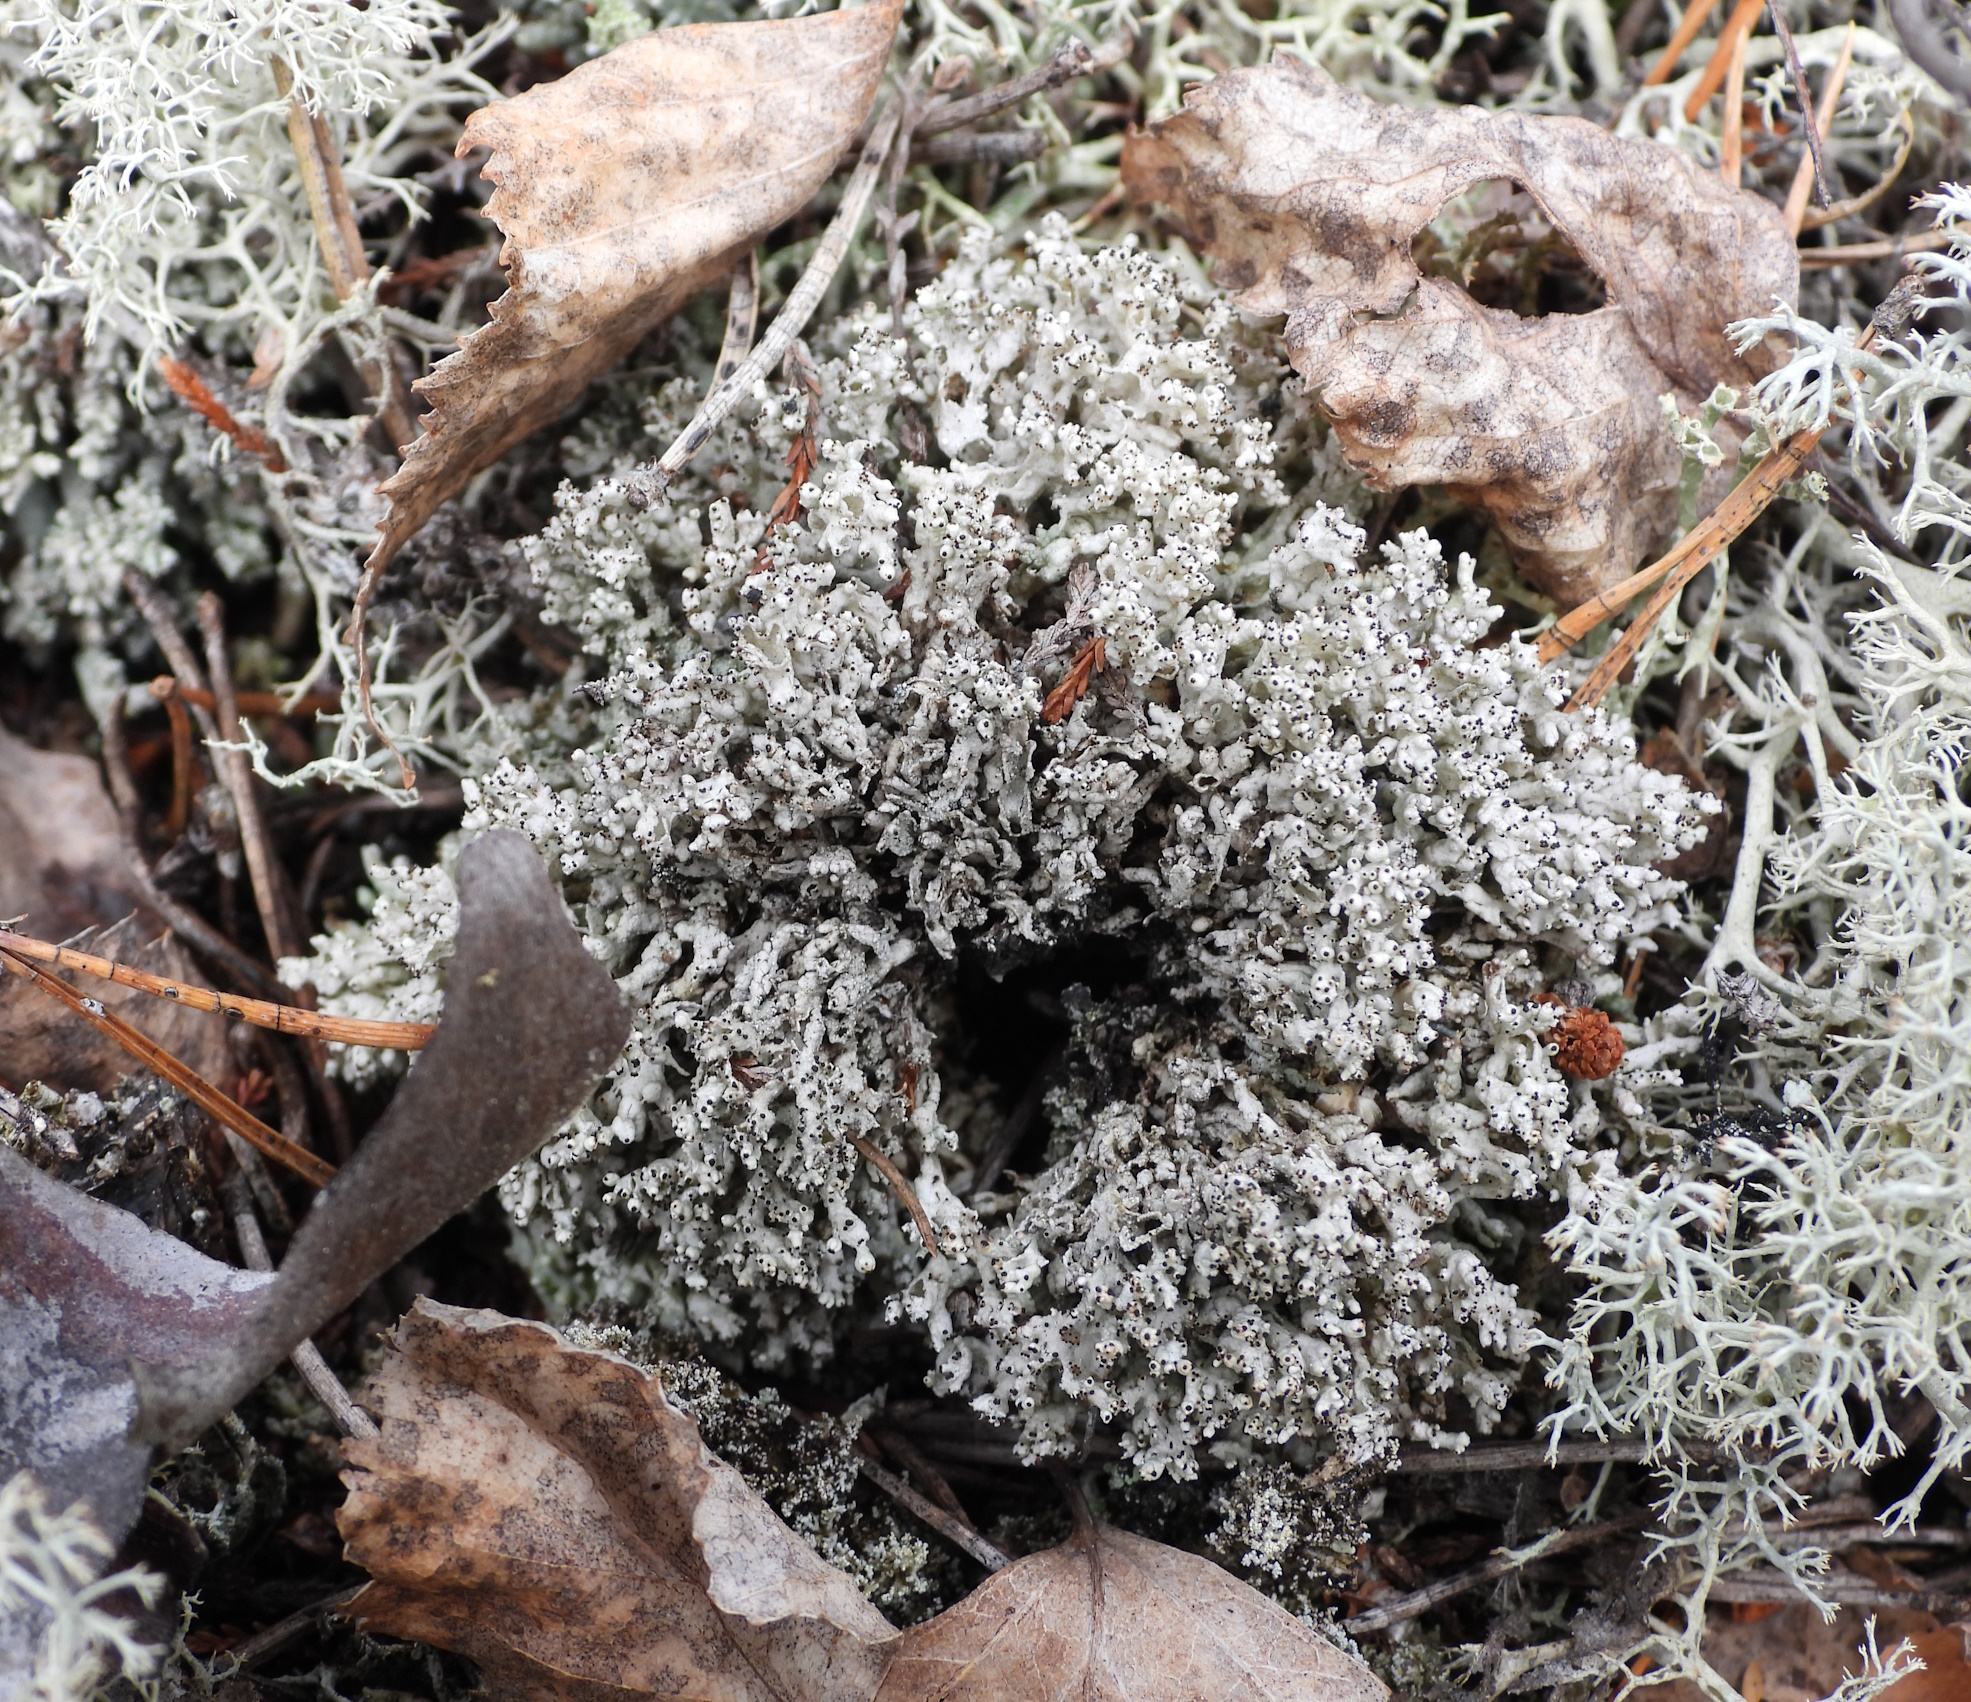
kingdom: Fungi
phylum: Ascomycota
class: Lecanoromycetes
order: Lecanorales
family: Cladoniaceae
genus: Pycnothelia
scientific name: Pycnothelia papillaria
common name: Nipple lichen
